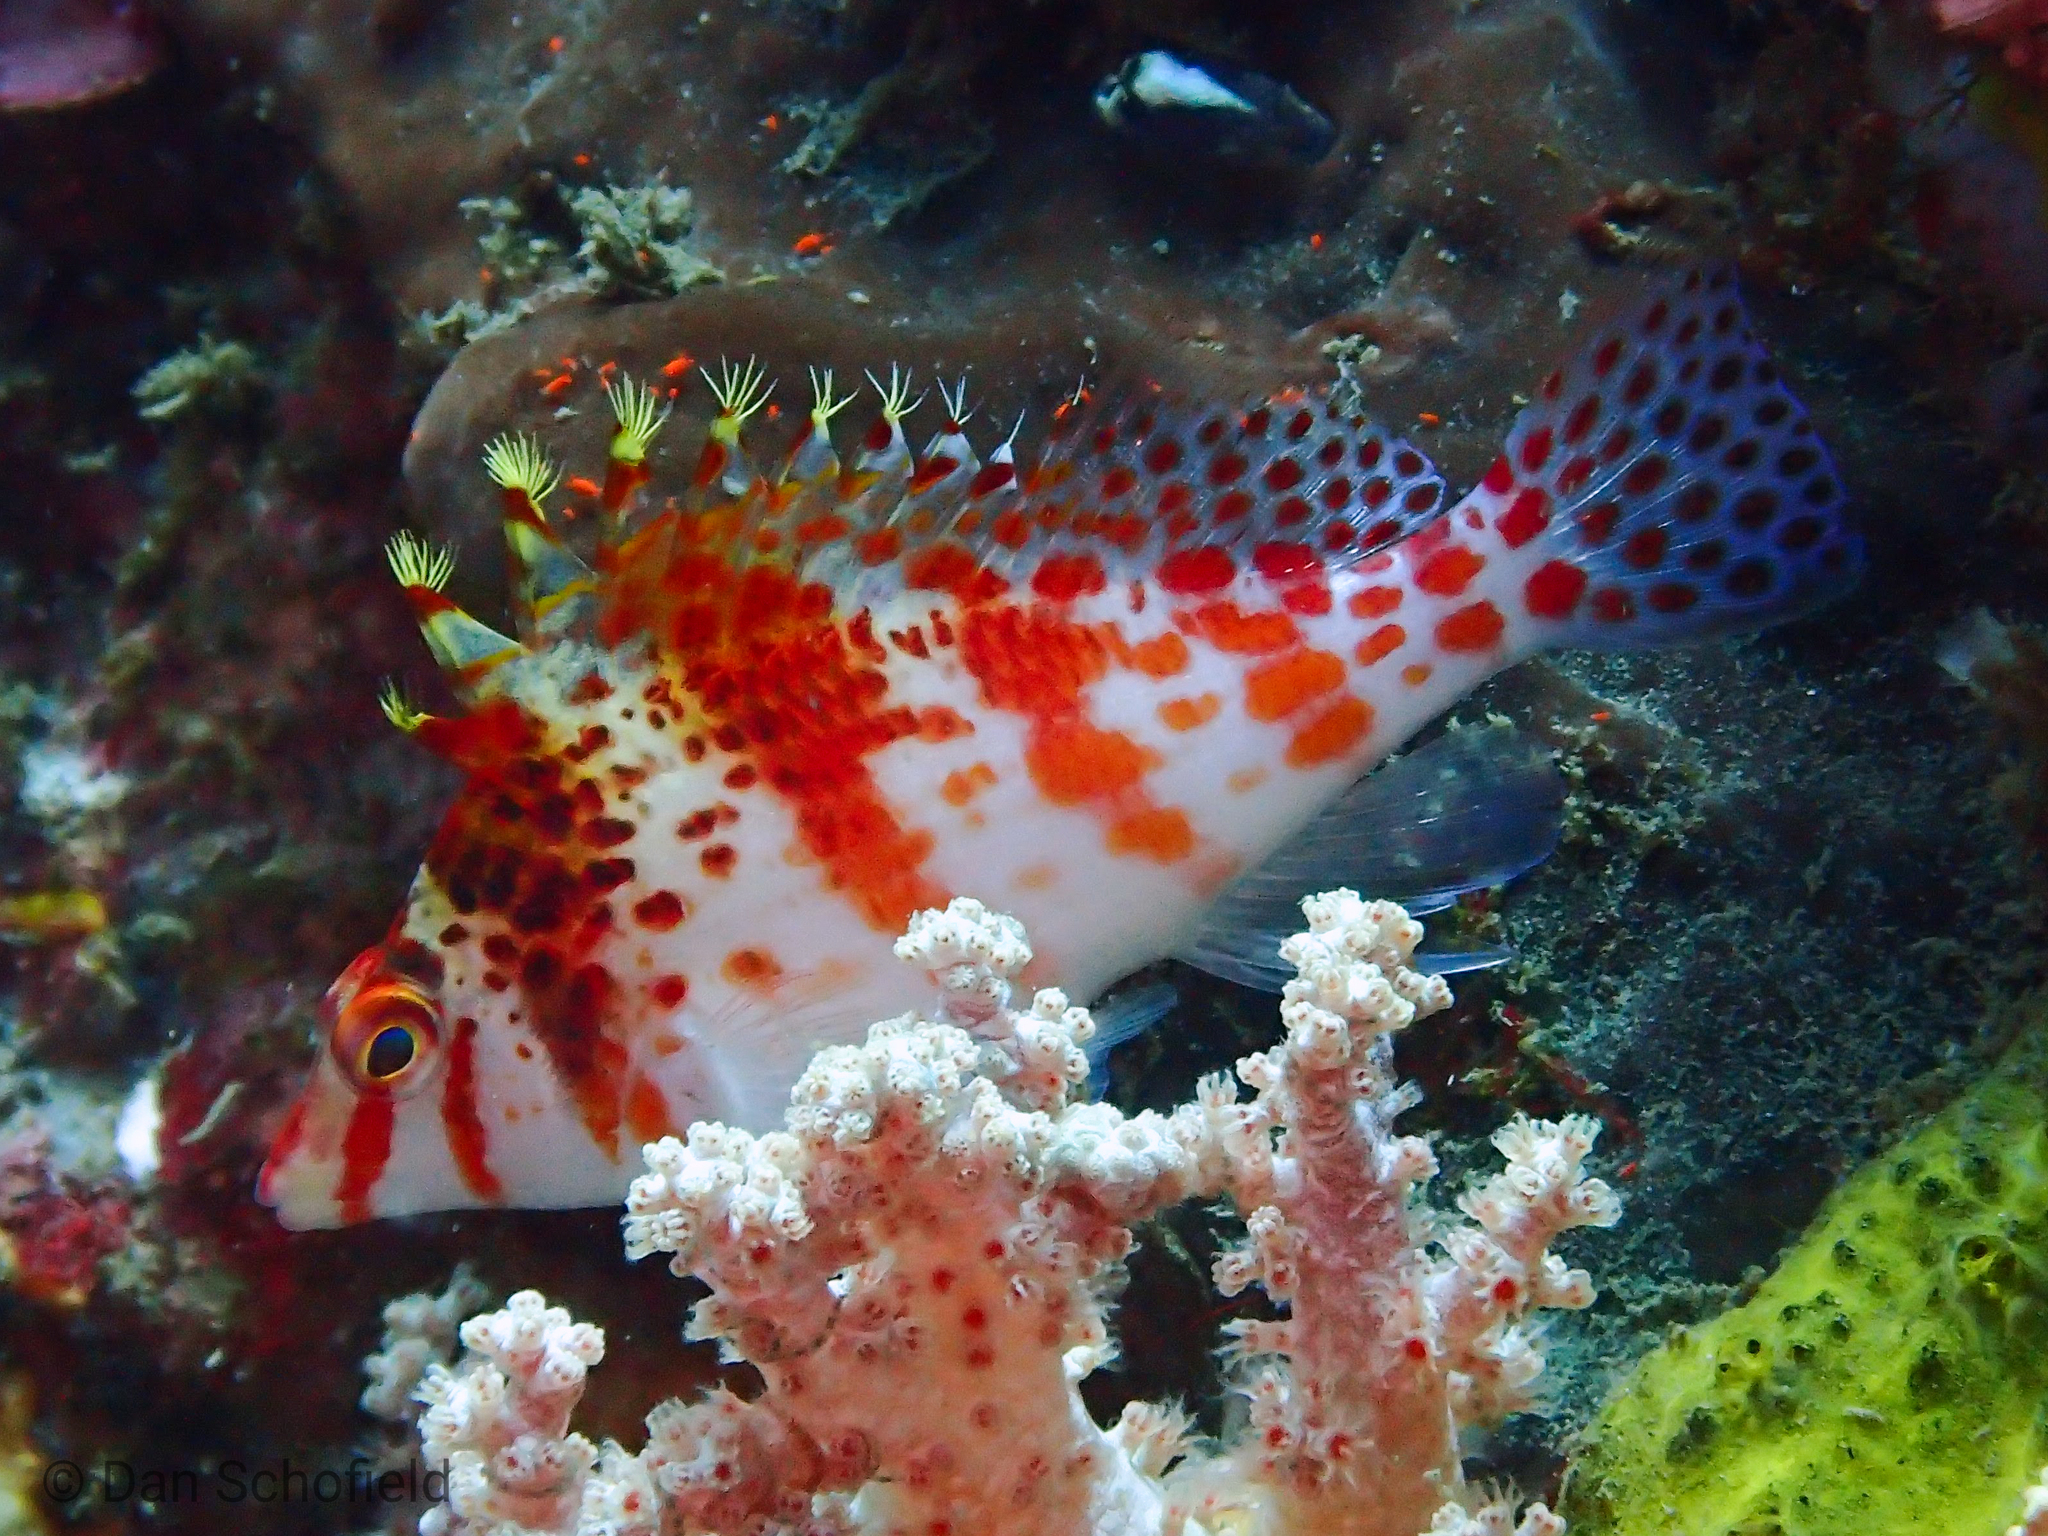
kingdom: Animalia
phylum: Chordata
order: Perciformes
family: Cirrhitidae
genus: Cirrhitichthys
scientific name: Cirrhitichthys falco
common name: Coral hawkfish
